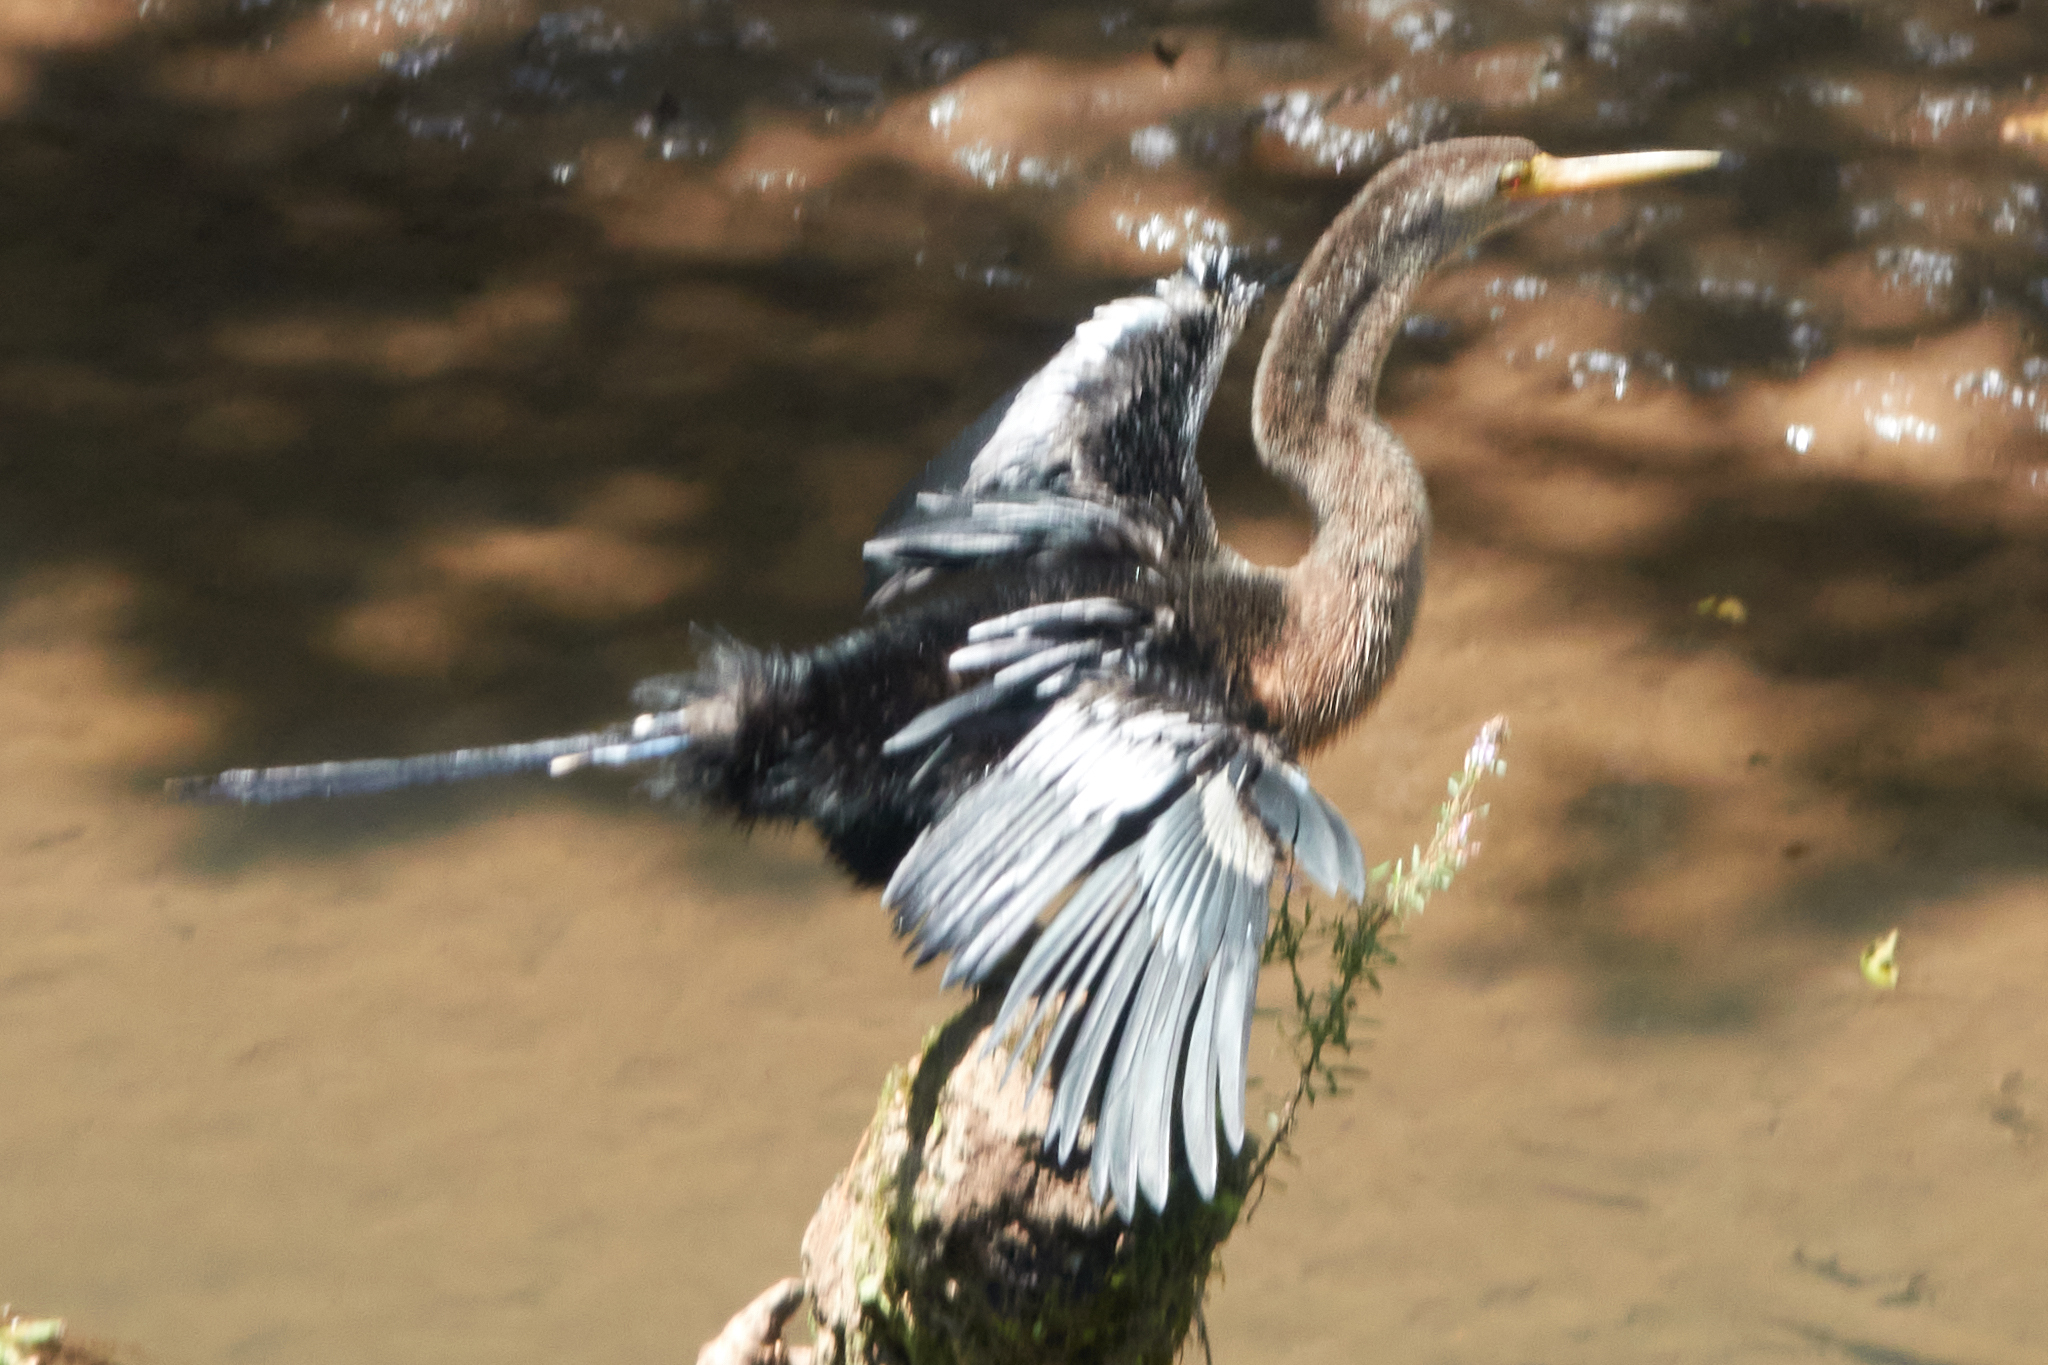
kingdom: Animalia
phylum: Chordata
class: Aves
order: Suliformes
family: Anhingidae
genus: Anhinga
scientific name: Anhinga anhinga
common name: Anhinga
